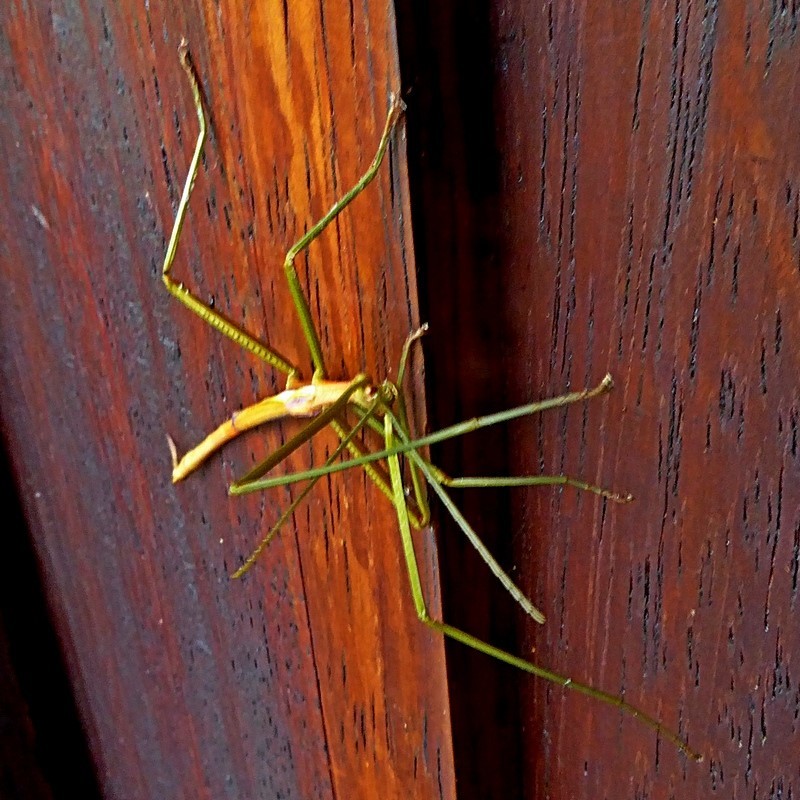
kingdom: Animalia
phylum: Arthropoda
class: Insecta
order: Phasmida
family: Phasmatidae
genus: Didymuria
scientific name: Didymuria violescens
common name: Spur-legged stick-insect
